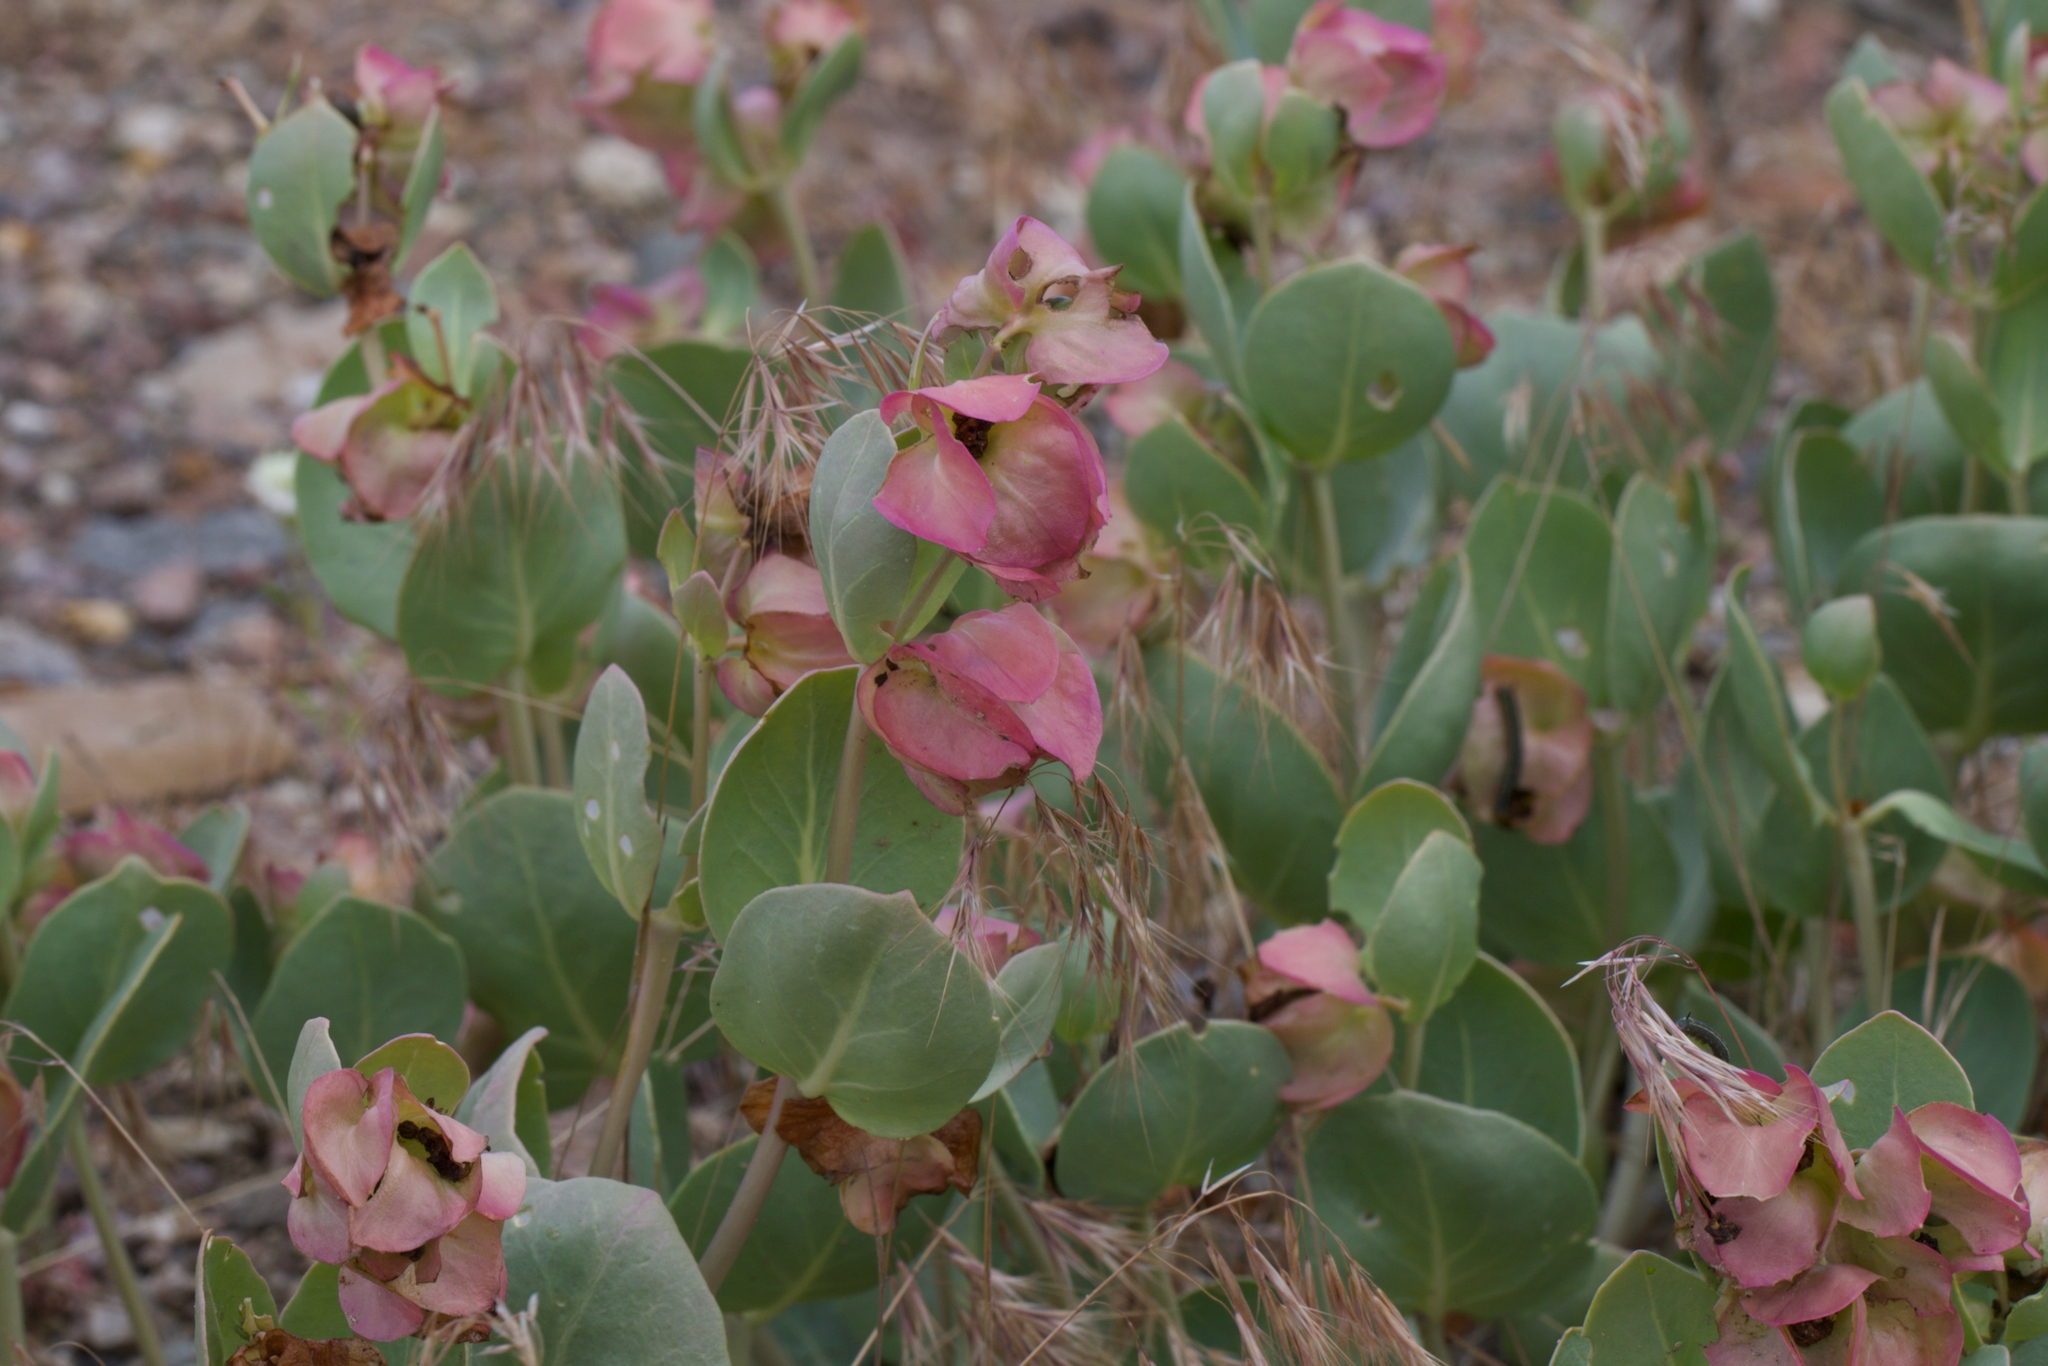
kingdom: Plantae
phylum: Tracheophyta
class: Magnoliopsida
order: Caryophyllales
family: Nyctaginaceae
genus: Mirabilis
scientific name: Mirabilis alipes
